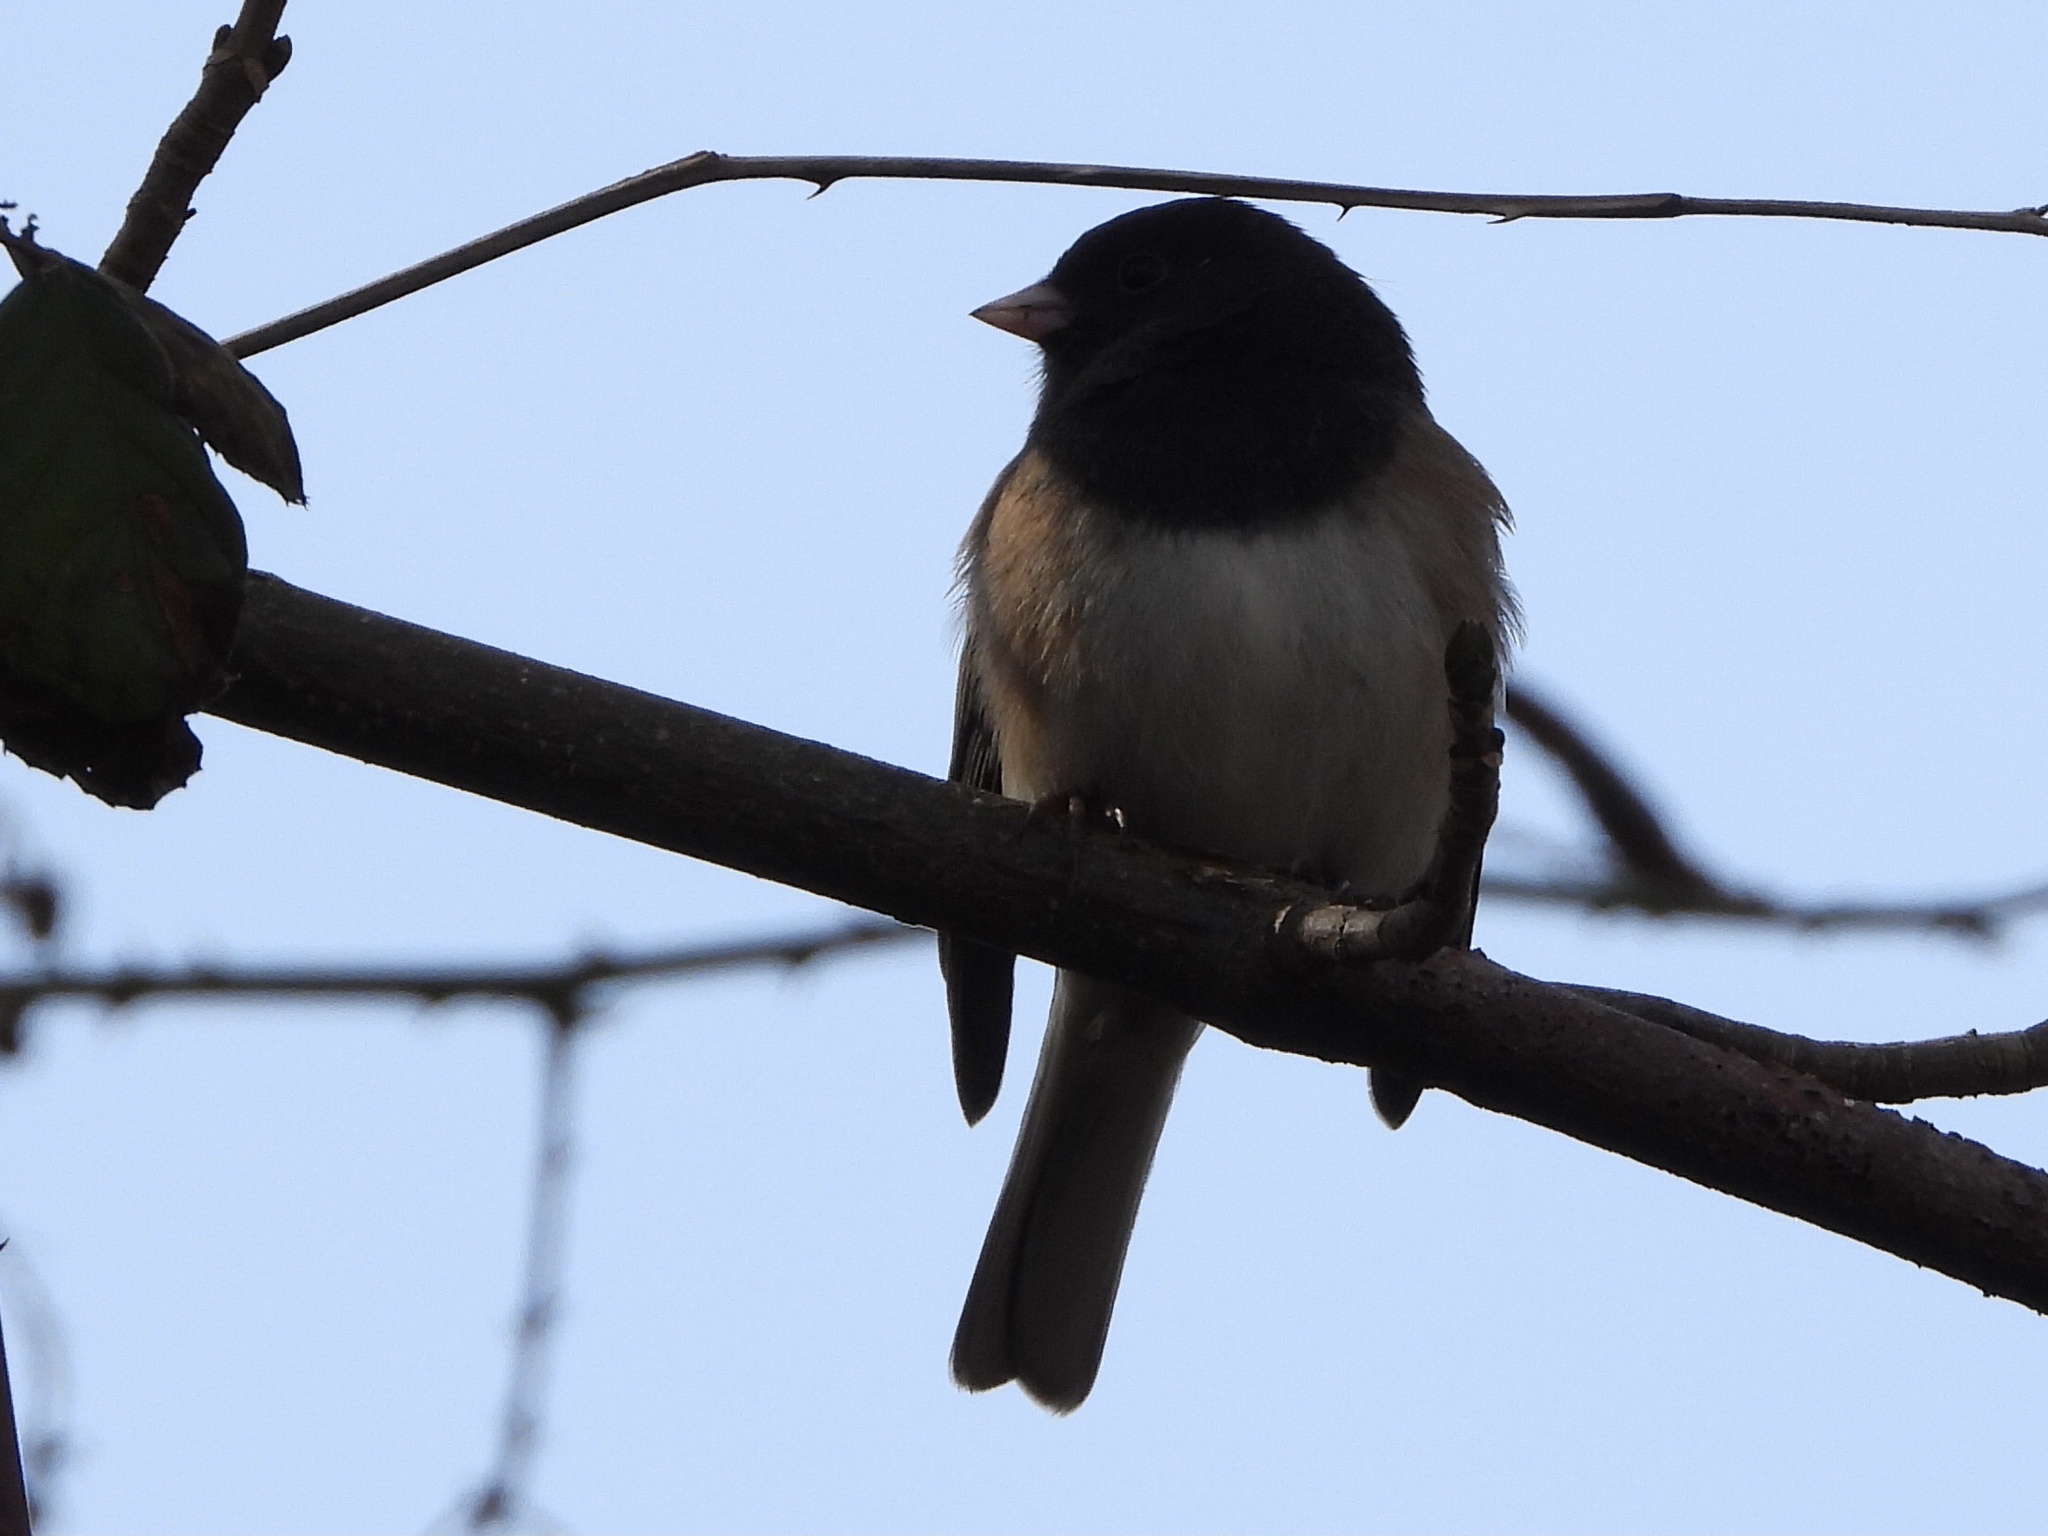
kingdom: Animalia
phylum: Chordata
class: Aves
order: Passeriformes
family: Passerellidae
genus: Junco
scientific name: Junco hyemalis
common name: Dark-eyed junco
